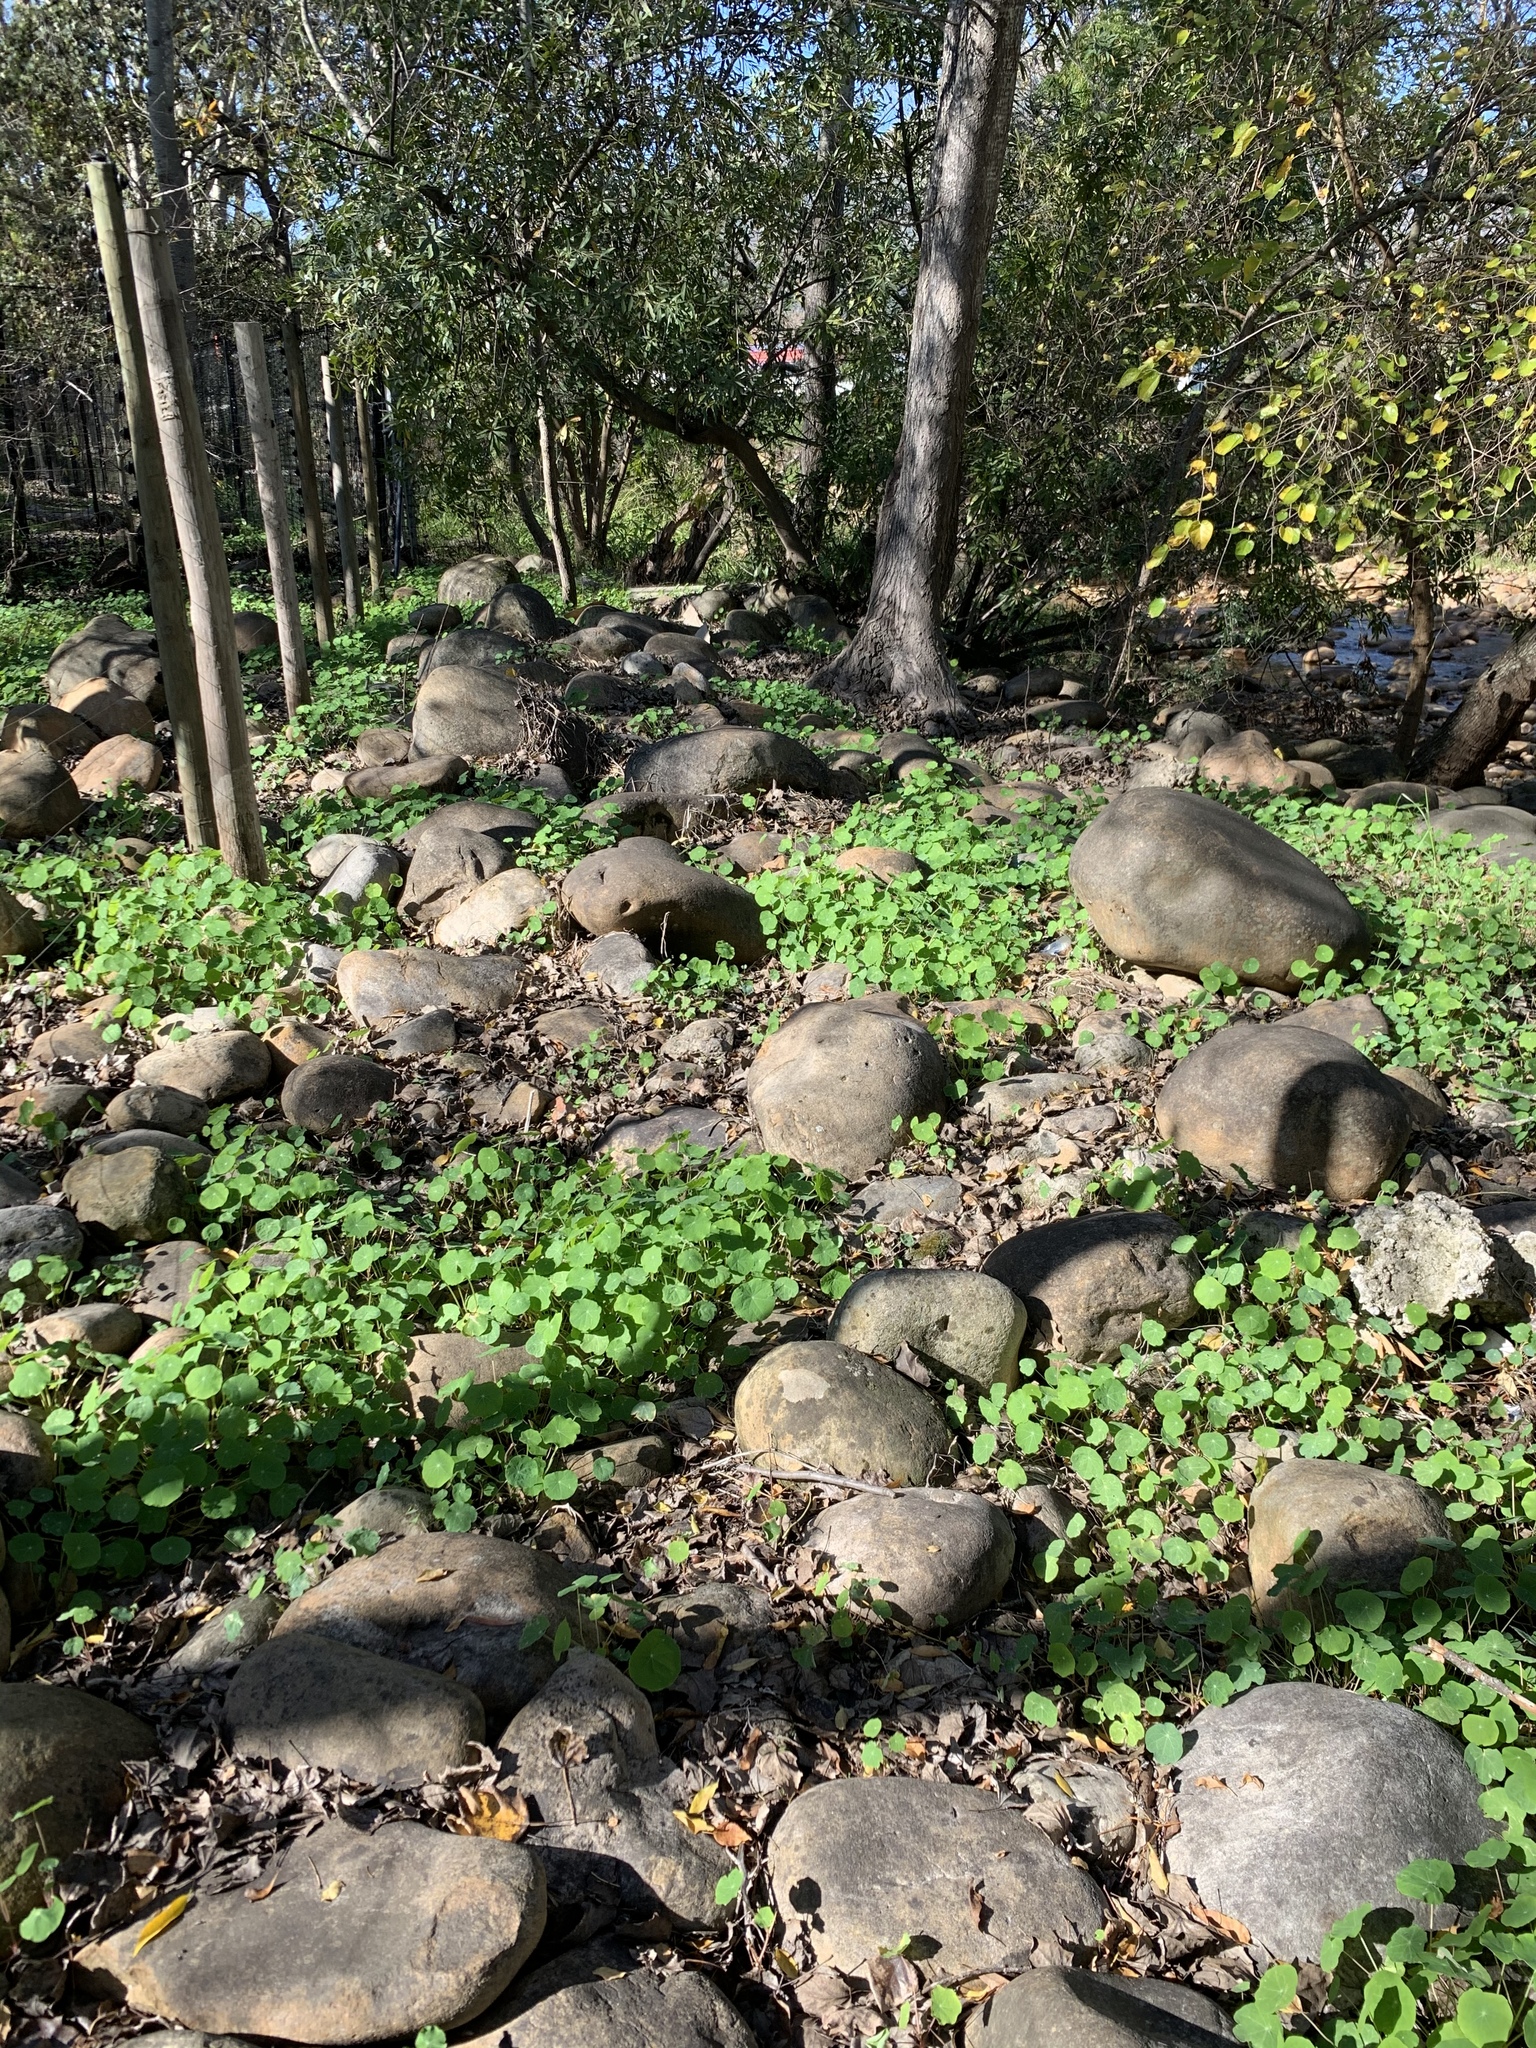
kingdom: Plantae
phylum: Tracheophyta
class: Magnoliopsida
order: Brassicales
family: Tropaeolaceae
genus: Tropaeolum
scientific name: Tropaeolum majus
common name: Nasturtium
